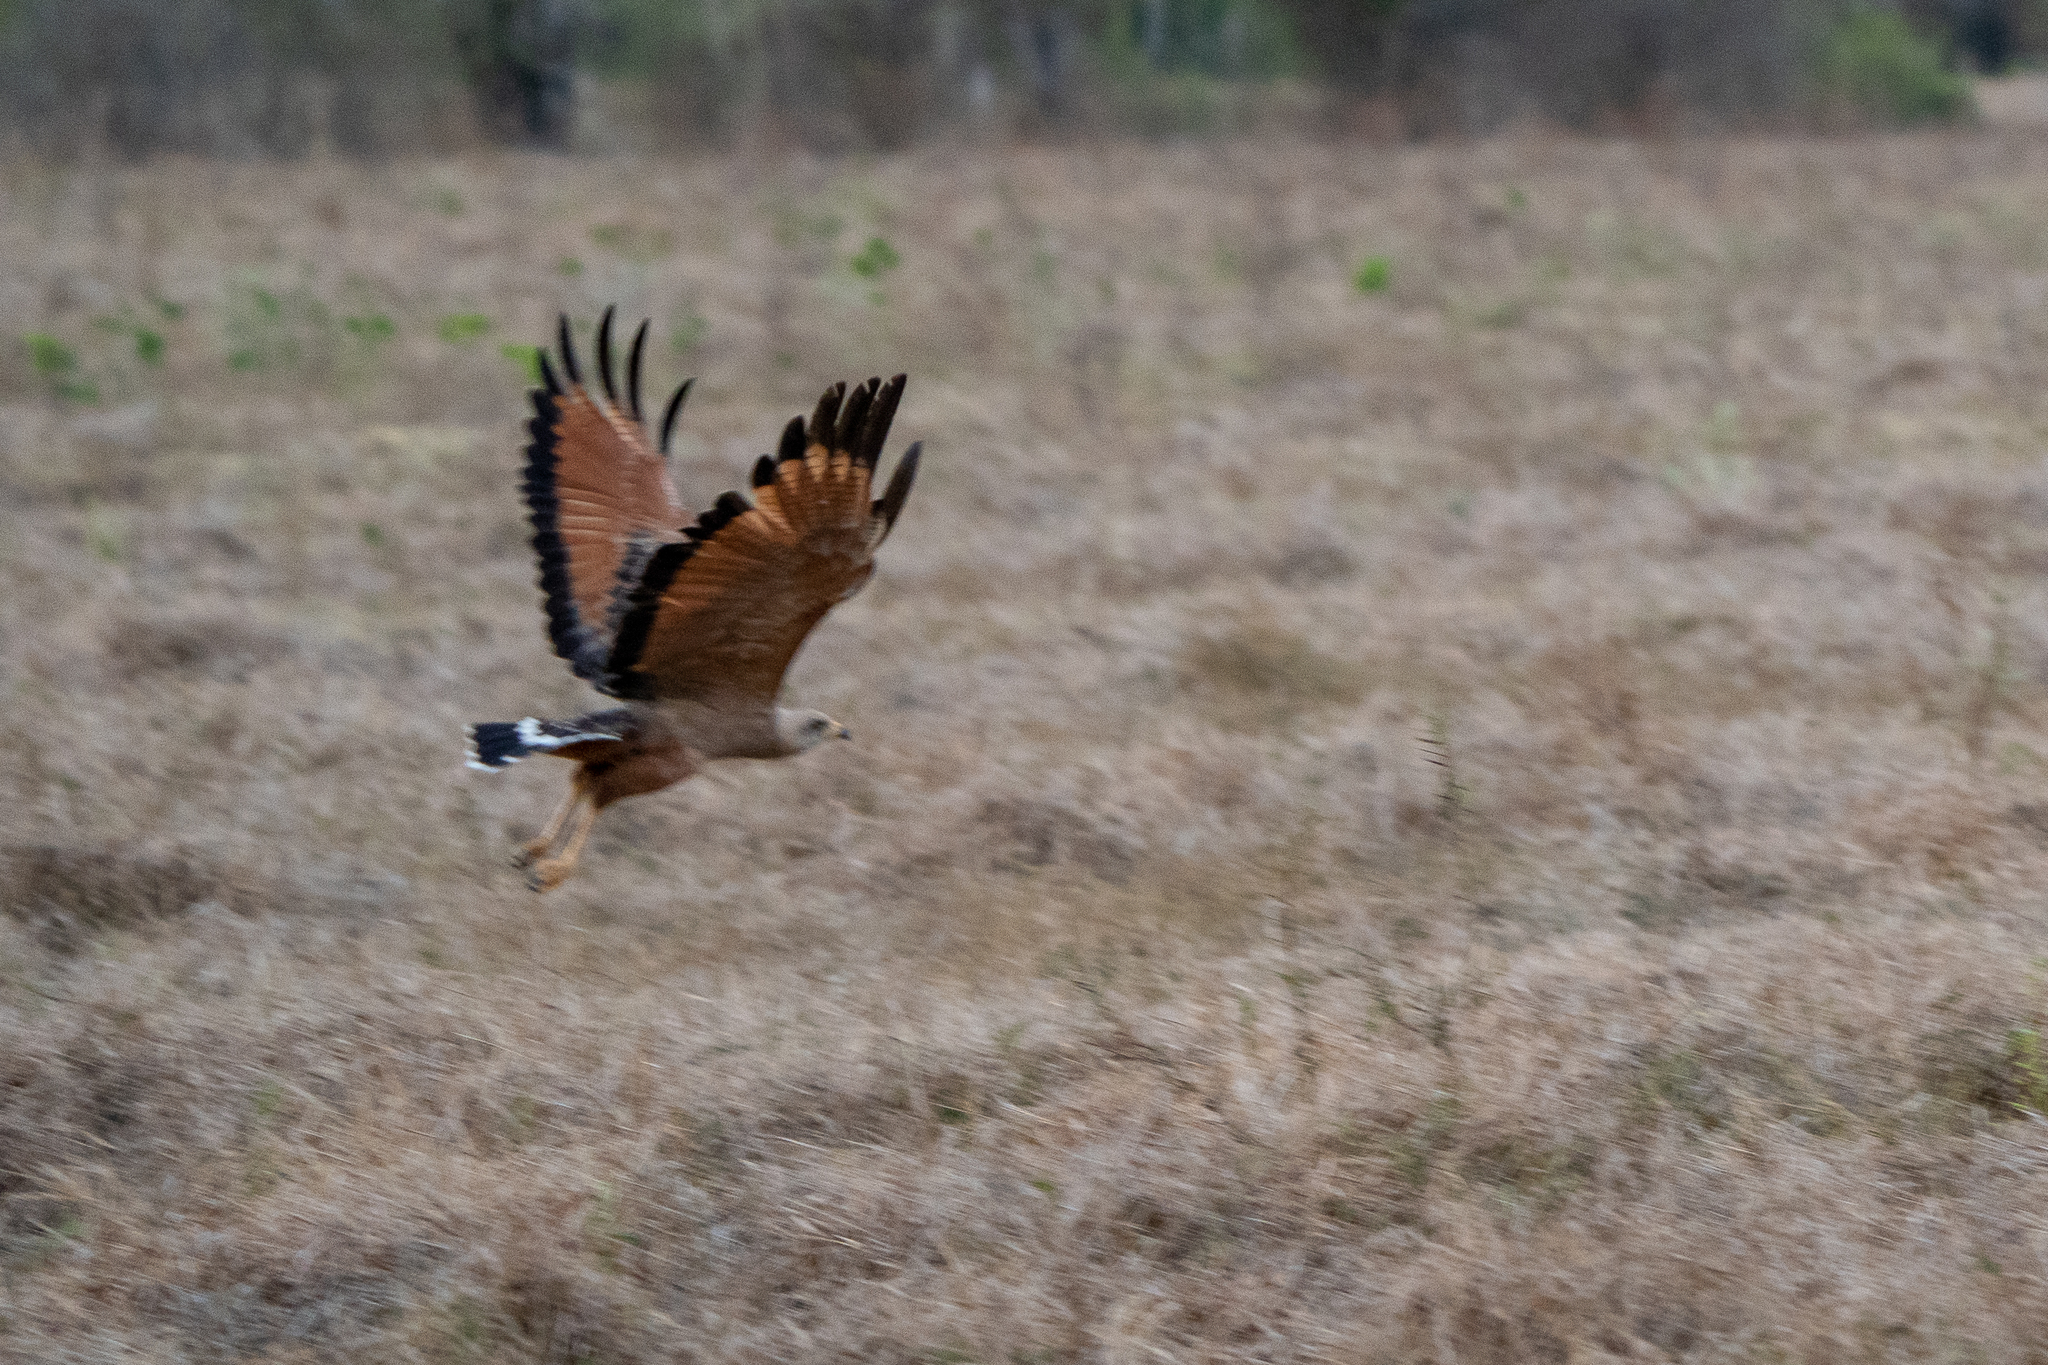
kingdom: Animalia
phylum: Chordata
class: Aves
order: Accipitriformes
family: Accipitridae
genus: Buteogallus
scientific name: Buteogallus meridionalis
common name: Savanna hawk
